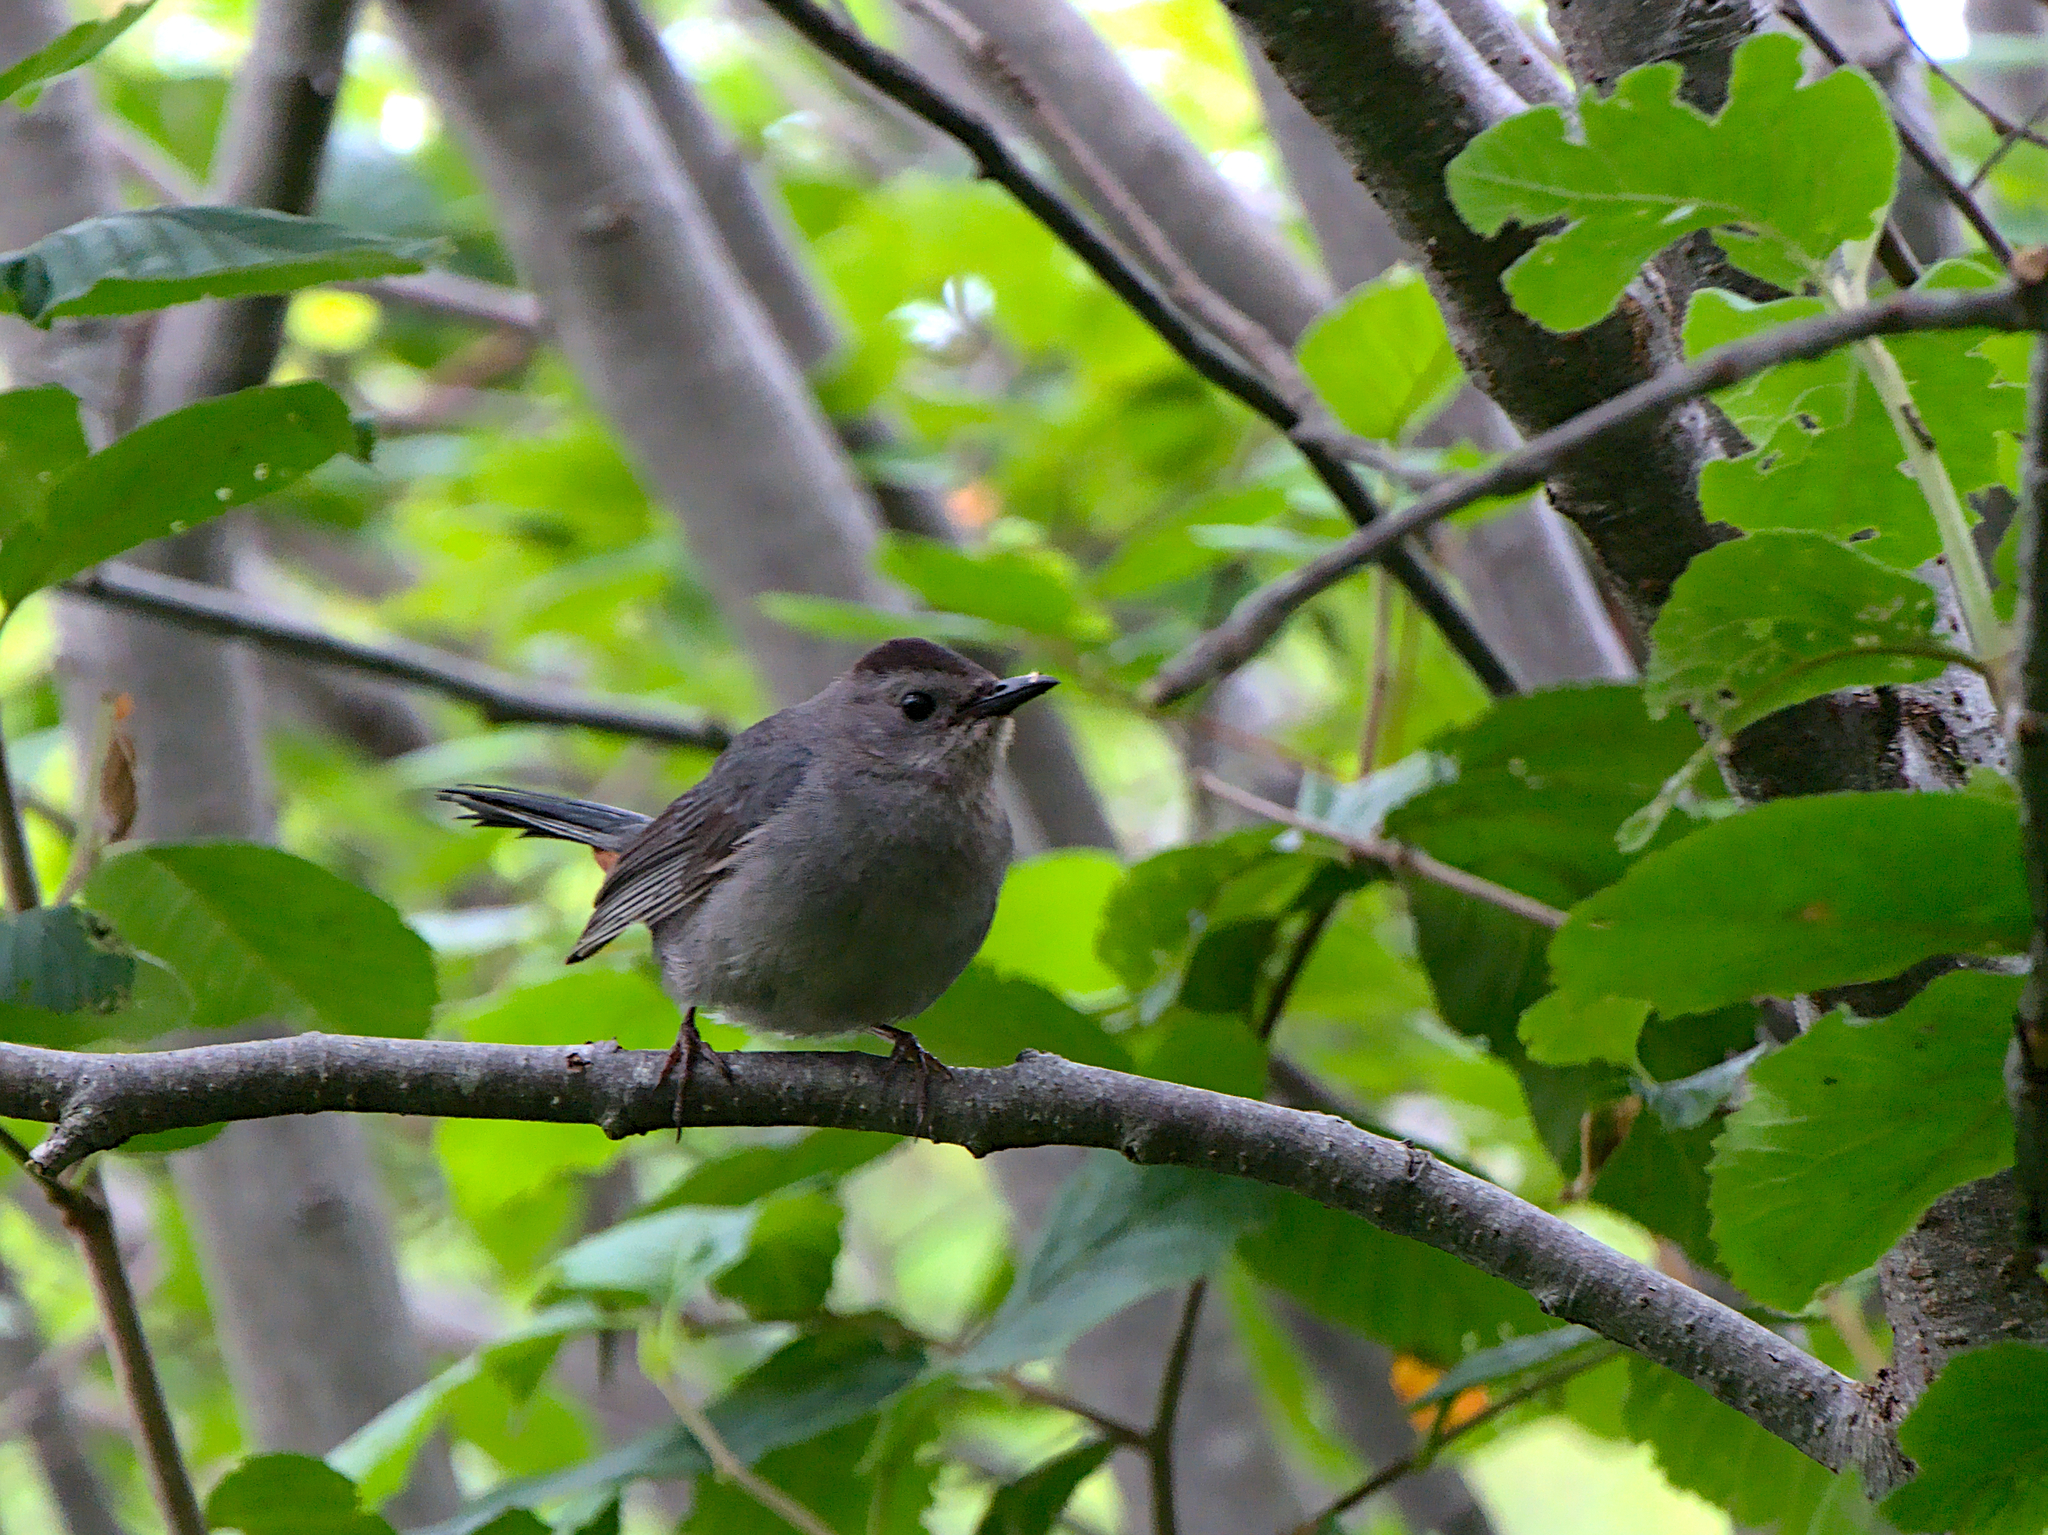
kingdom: Animalia
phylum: Chordata
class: Aves
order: Passeriformes
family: Mimidae
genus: Dumetella
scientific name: Dumetella carolinensis
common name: Gray catbird
